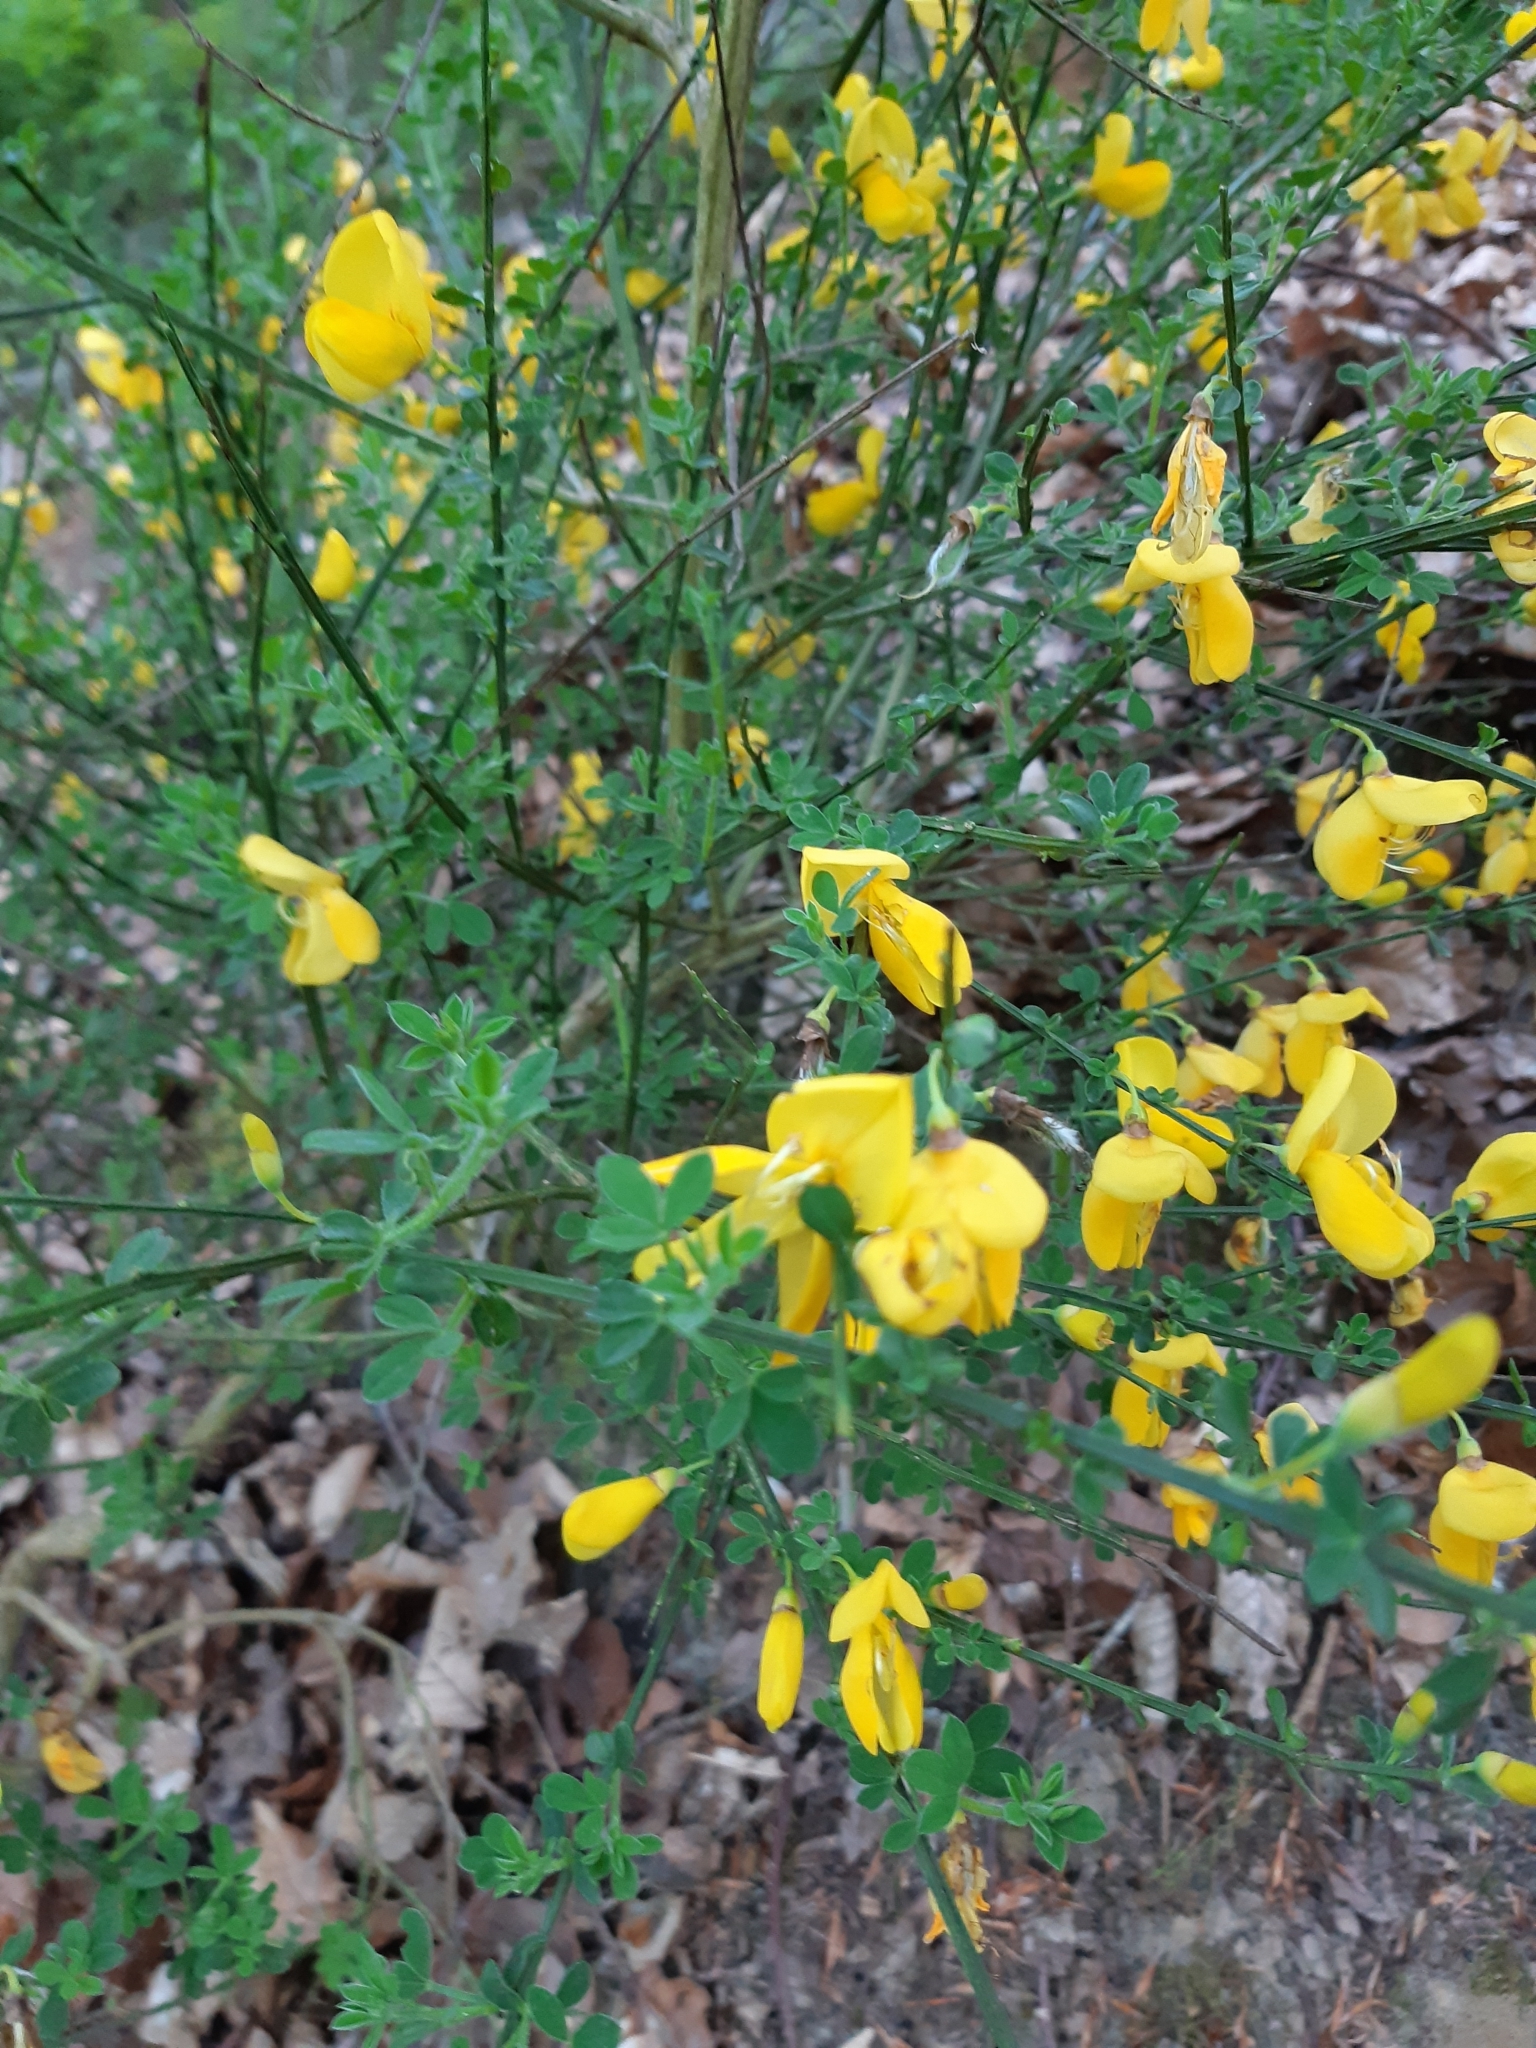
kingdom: Plantae
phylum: Tracheophyta
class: Magnoliopsida
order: Fabales
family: Fabaceae
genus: Cytisus
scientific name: Cytisus scoparius
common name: Scotch broom
